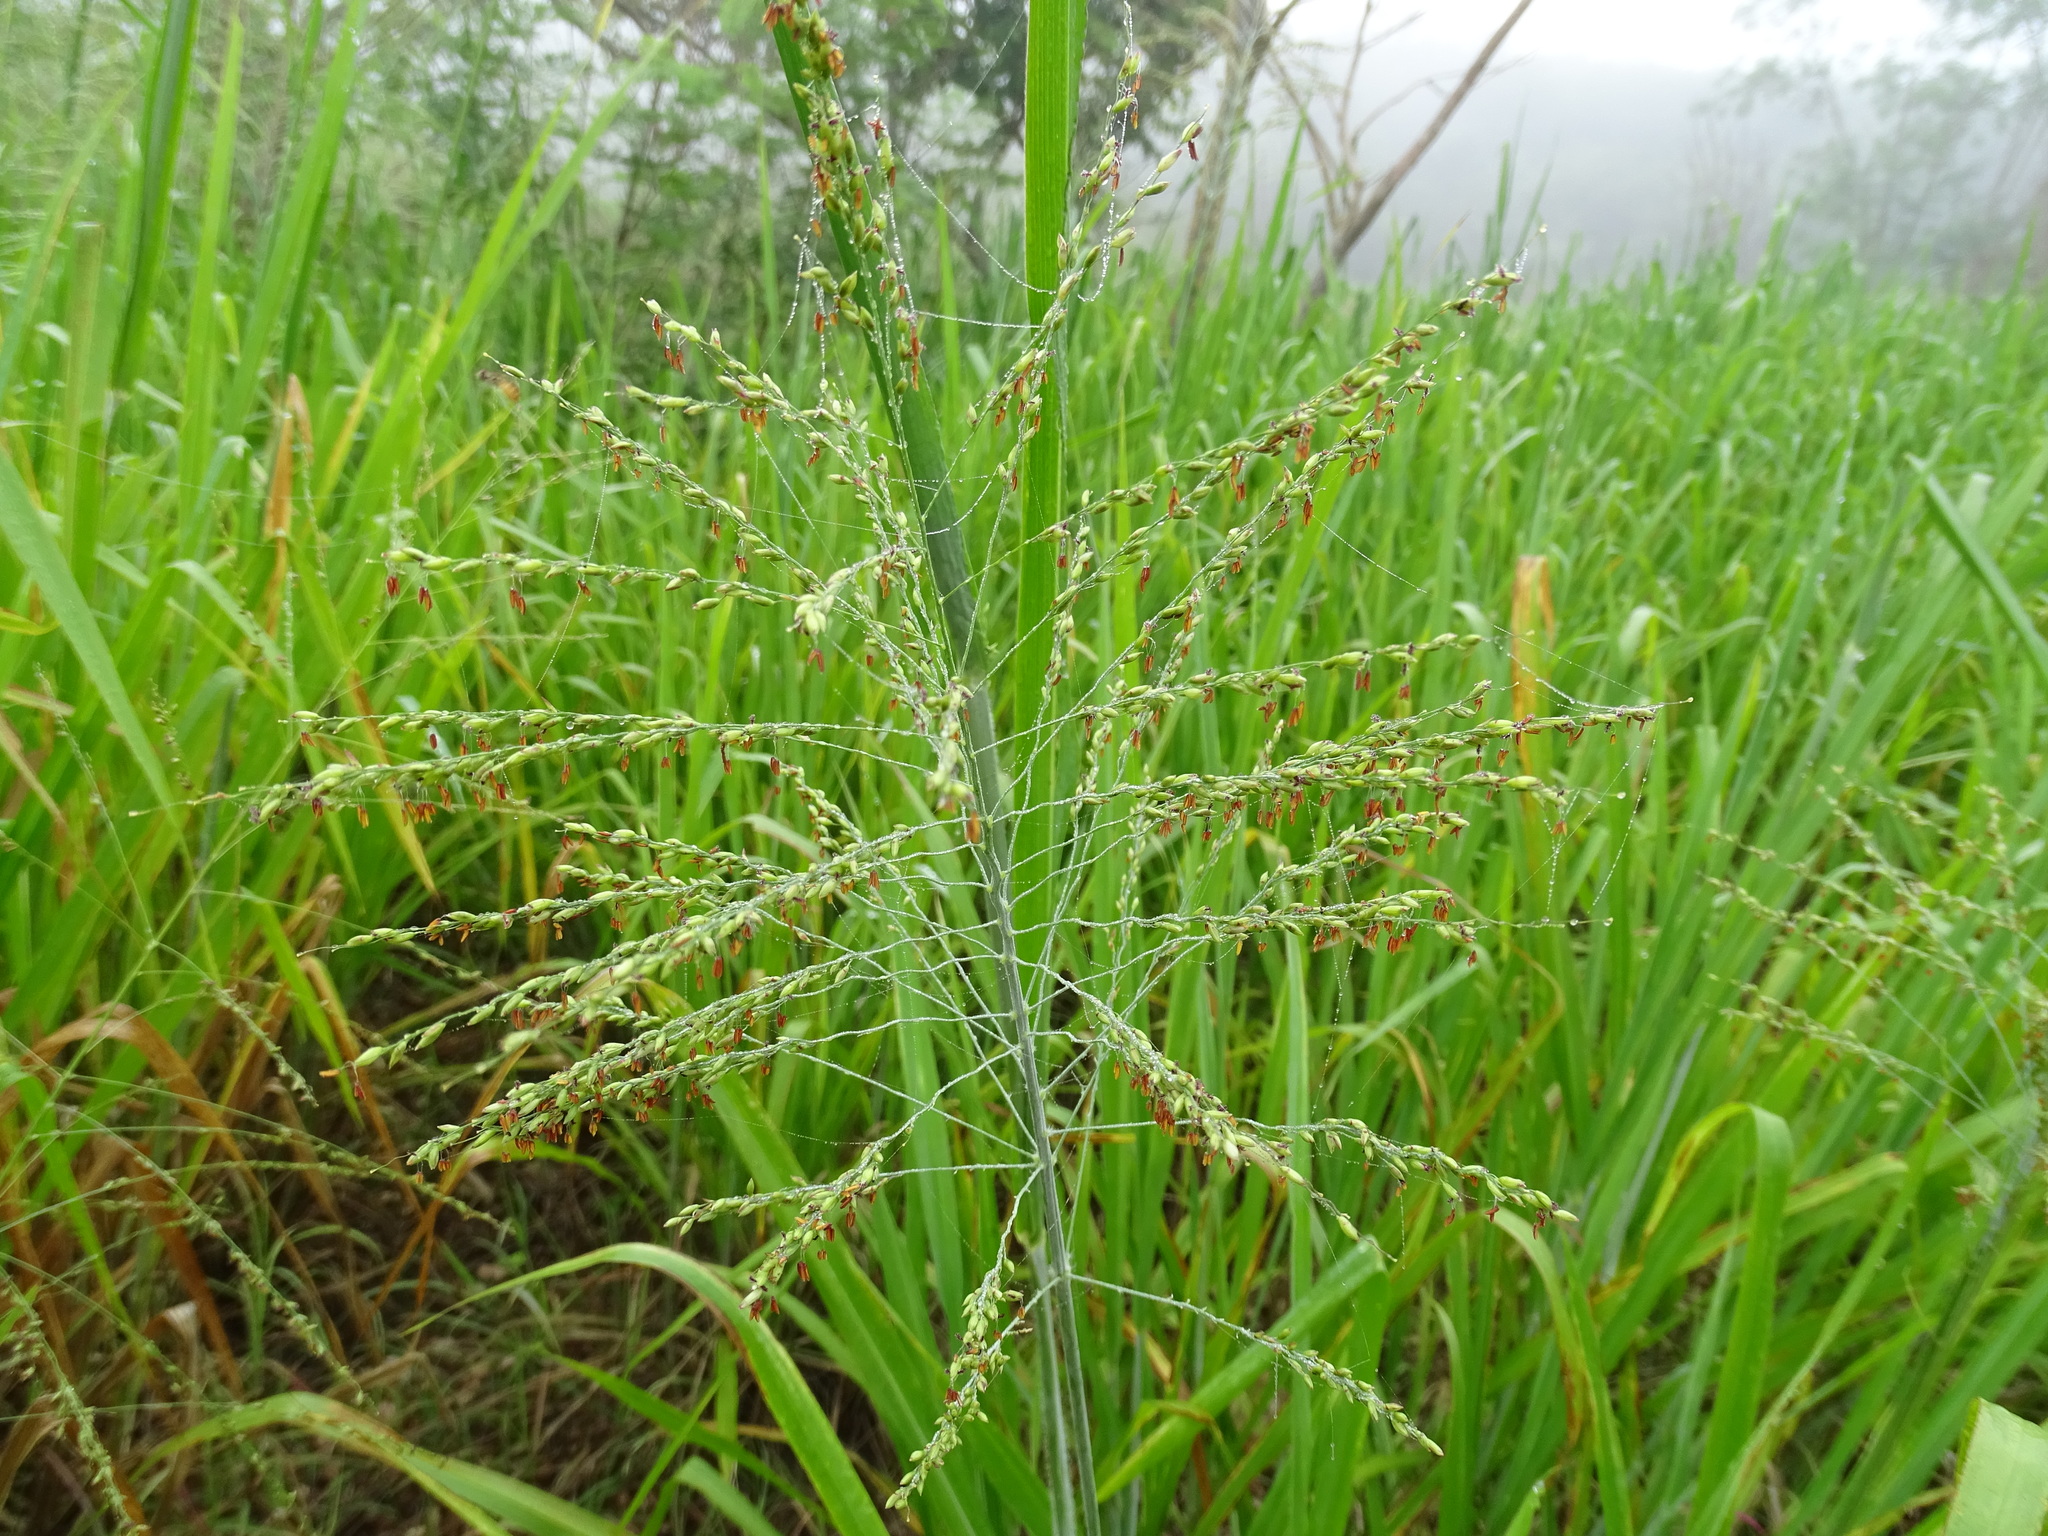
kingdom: Plantae
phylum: Tracheophyta
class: Liliopsida
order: Poales
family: Poaceae
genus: Megathyrsus
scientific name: Megathyrsus maximus
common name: Guineagrass
